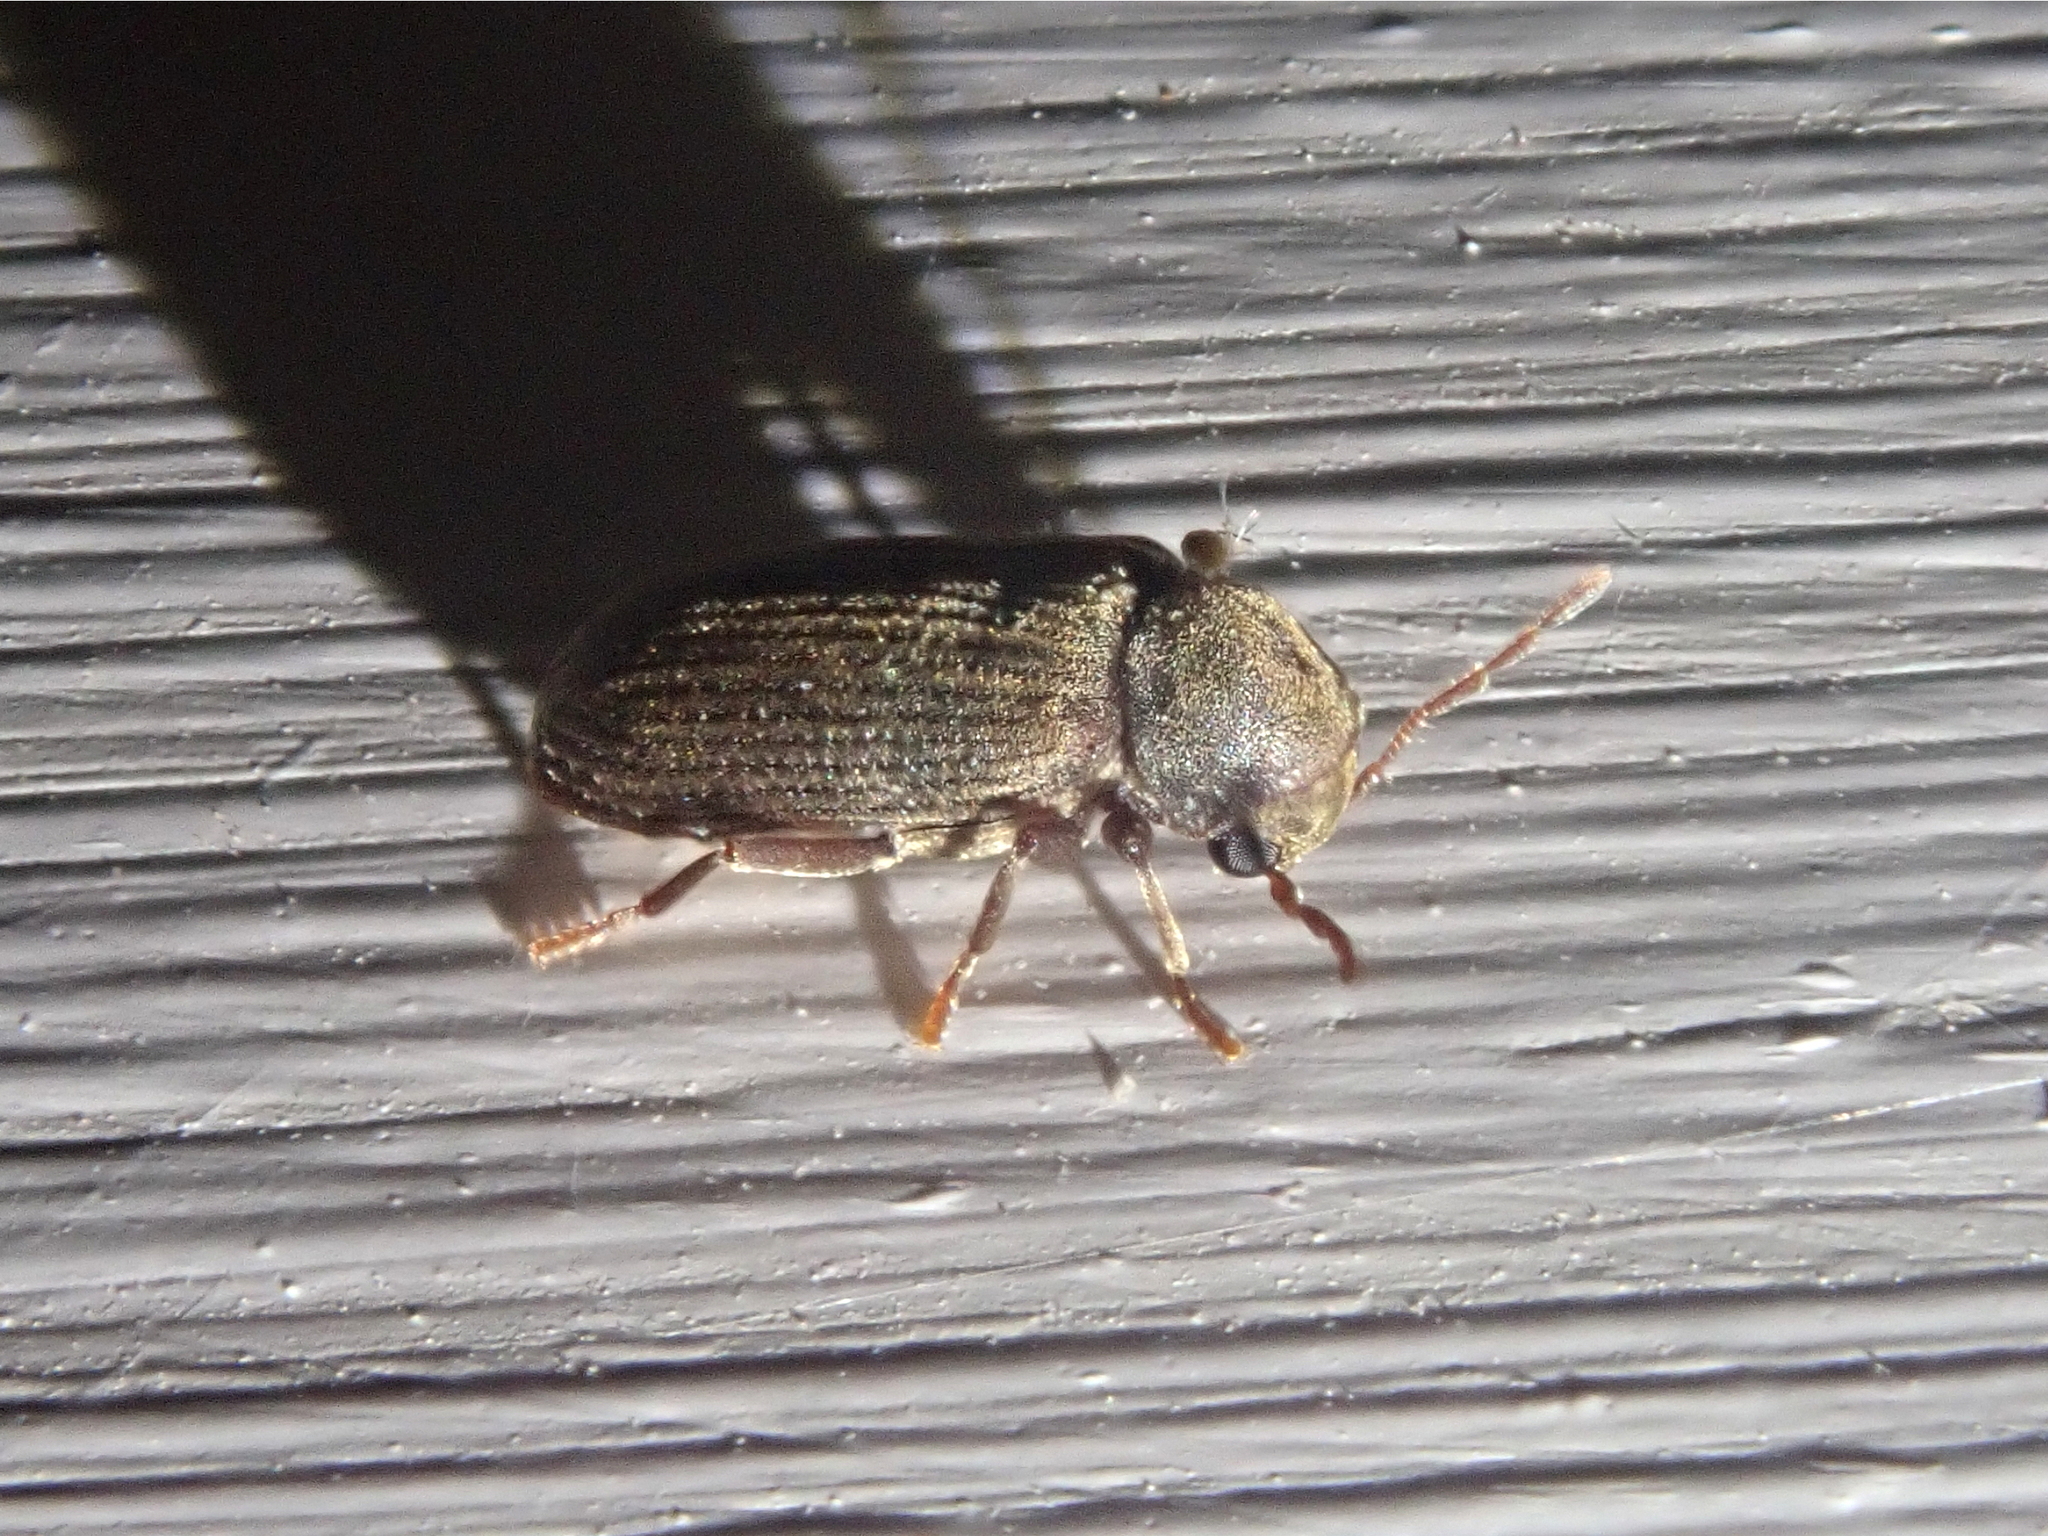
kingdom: Animalia
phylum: Arthropoda
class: Insecta
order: Coleoptera
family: Anobiidae
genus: Anobium
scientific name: Anobium punctatum
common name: Furniture beetle
